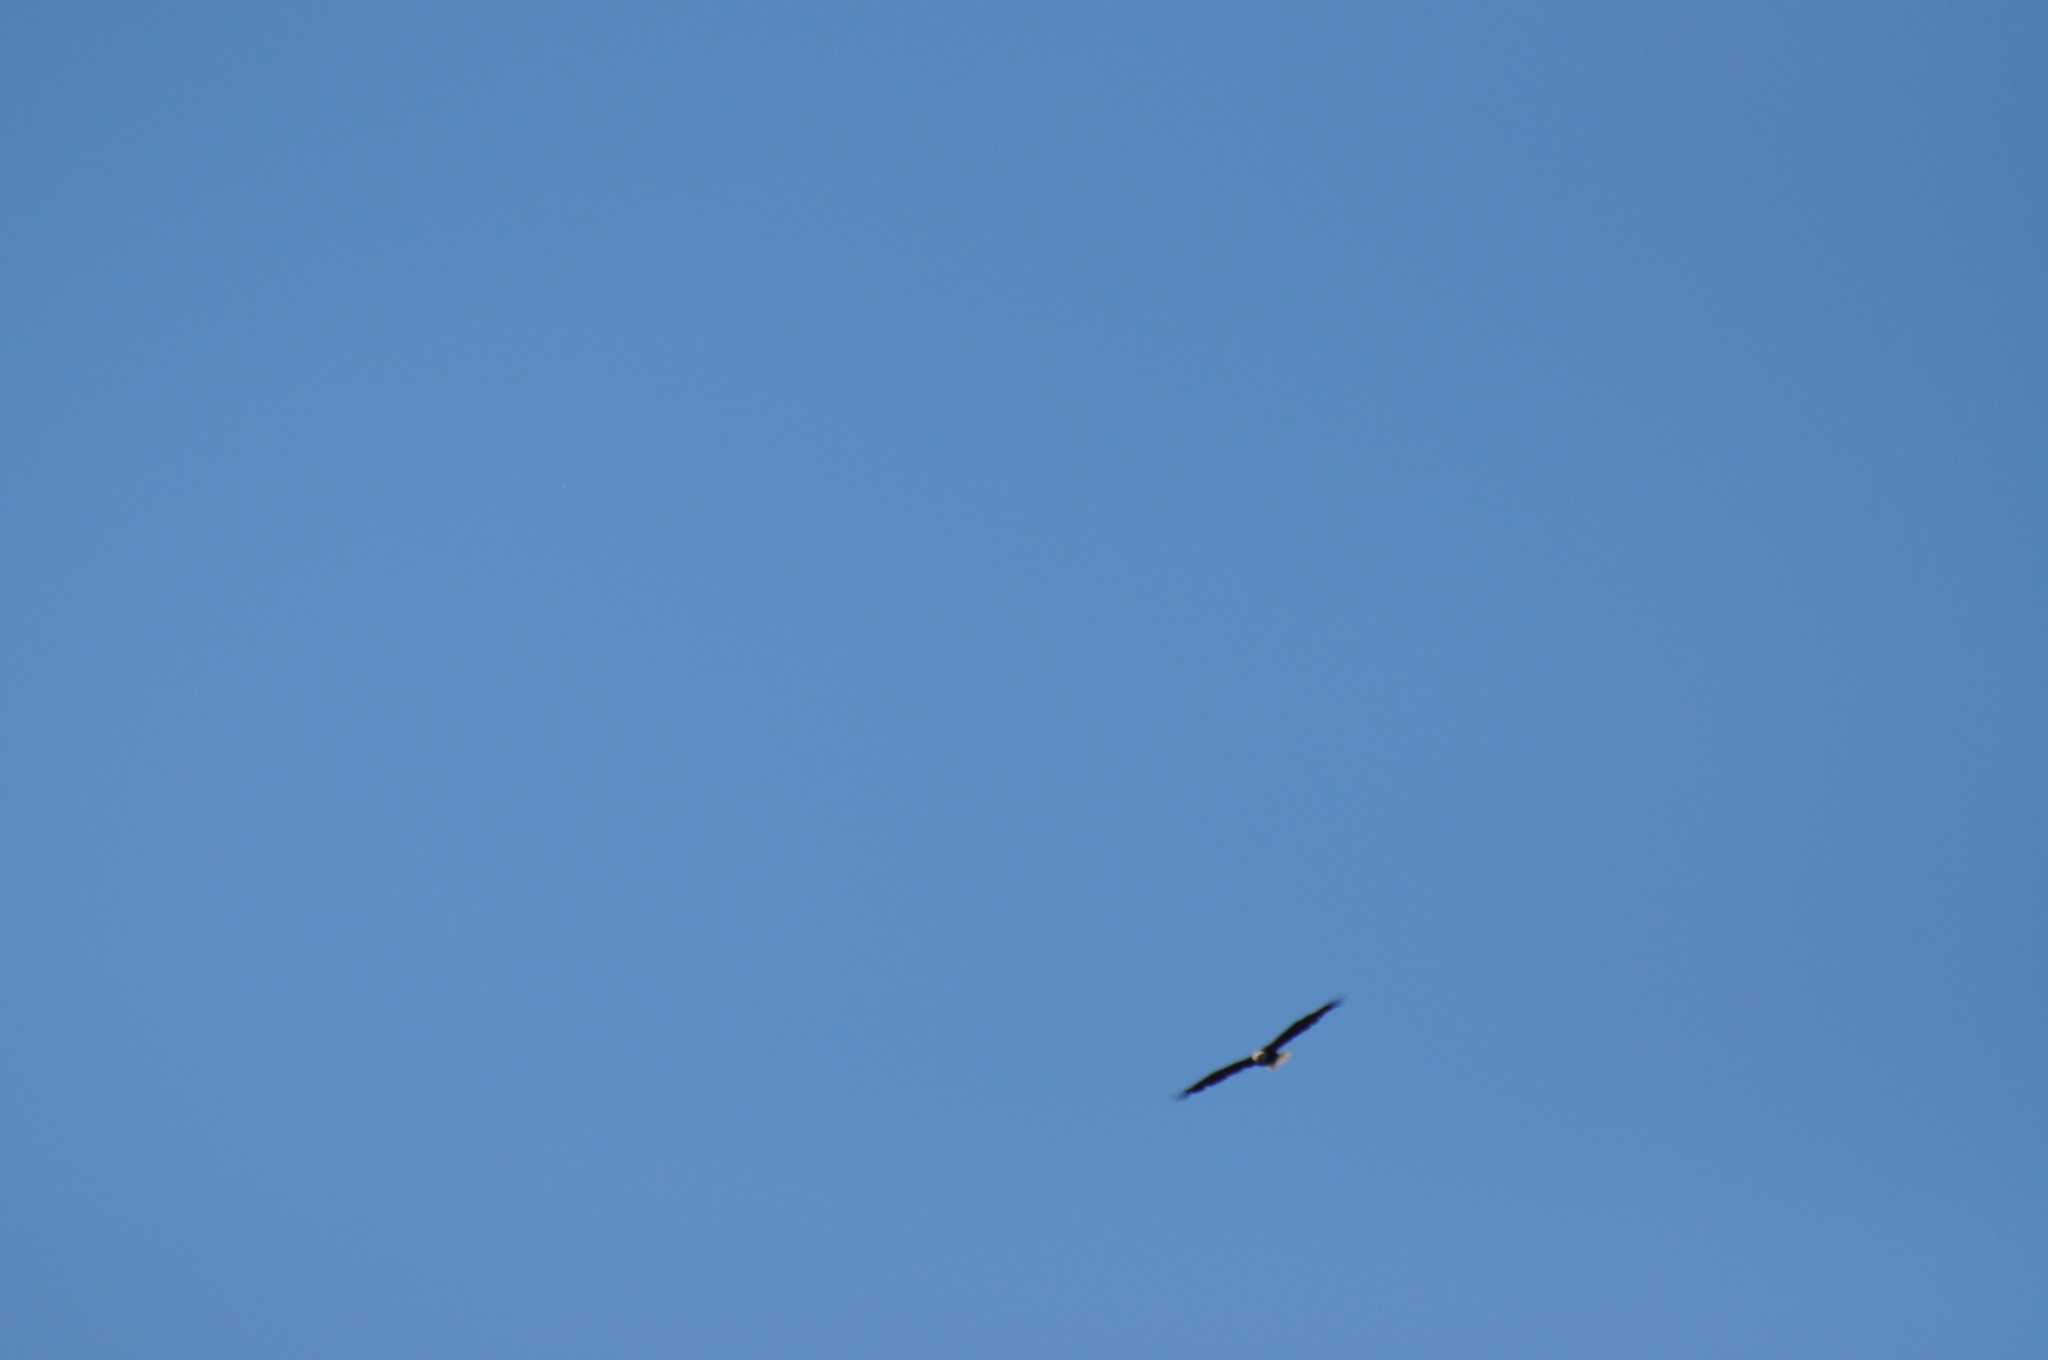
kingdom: Animalia
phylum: Chordata
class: Aves
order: Accipitriformes
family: Accipitridae
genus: Haliaeetus
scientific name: Haliaeetus leucocephalus
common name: Bald eagle
